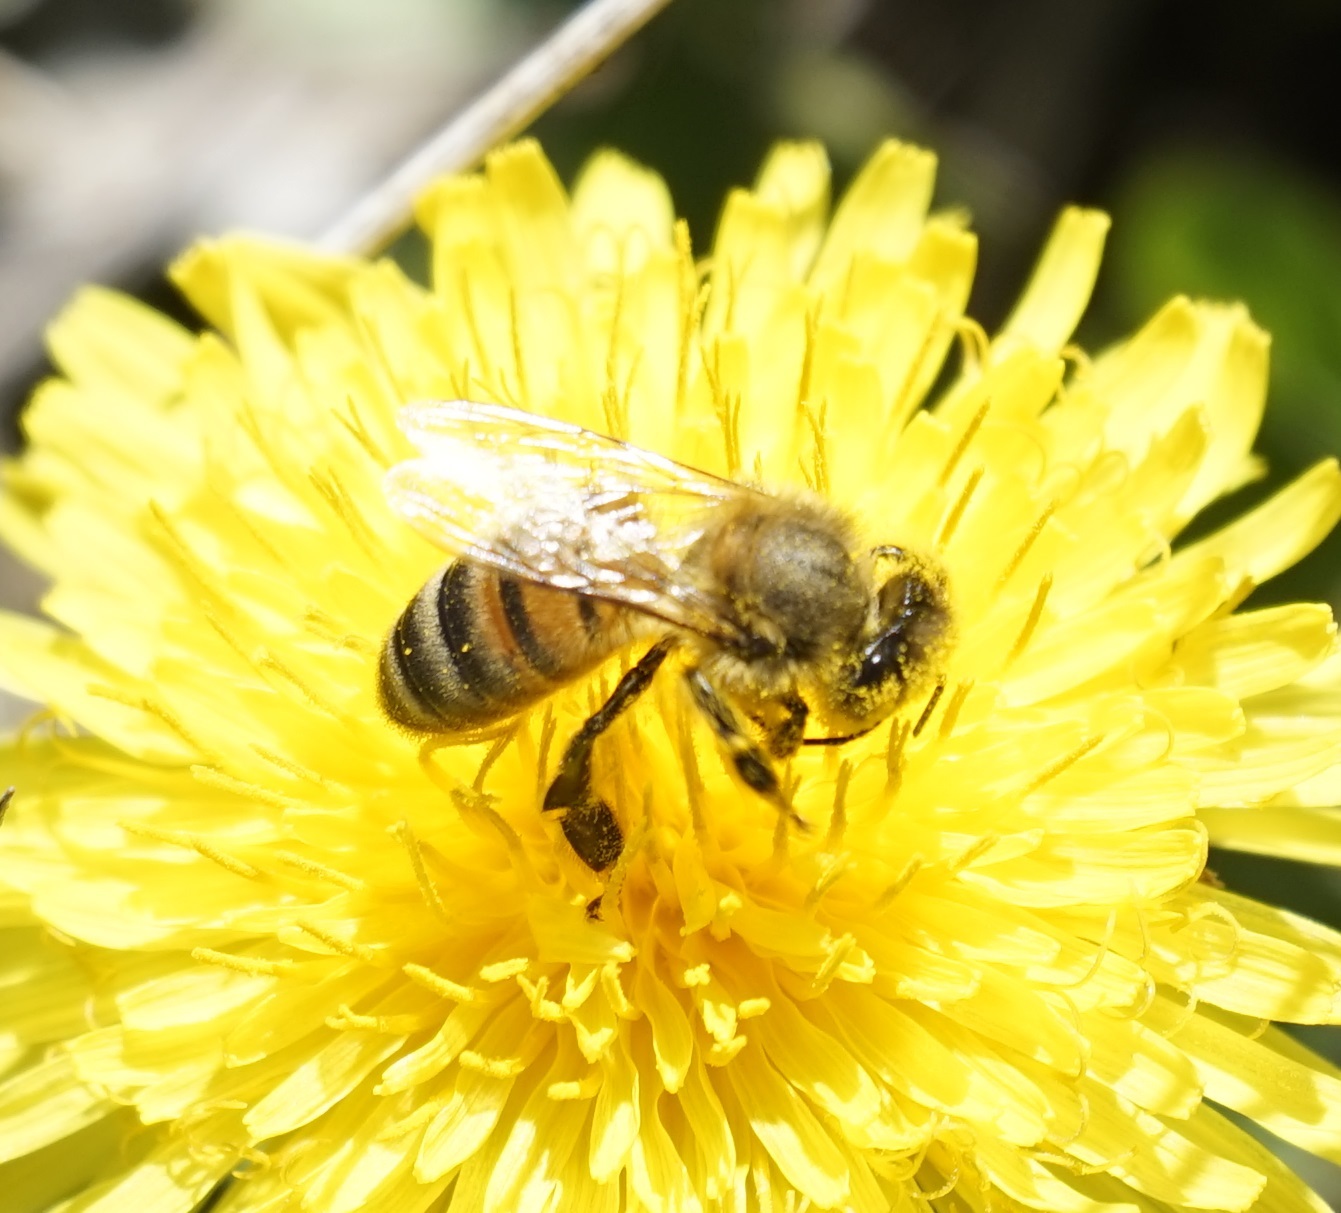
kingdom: Animalia
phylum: Arthropoda
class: Insecta
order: Hymenoptera
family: Apidae
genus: Apis
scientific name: Apis mellifera
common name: Honey bee
